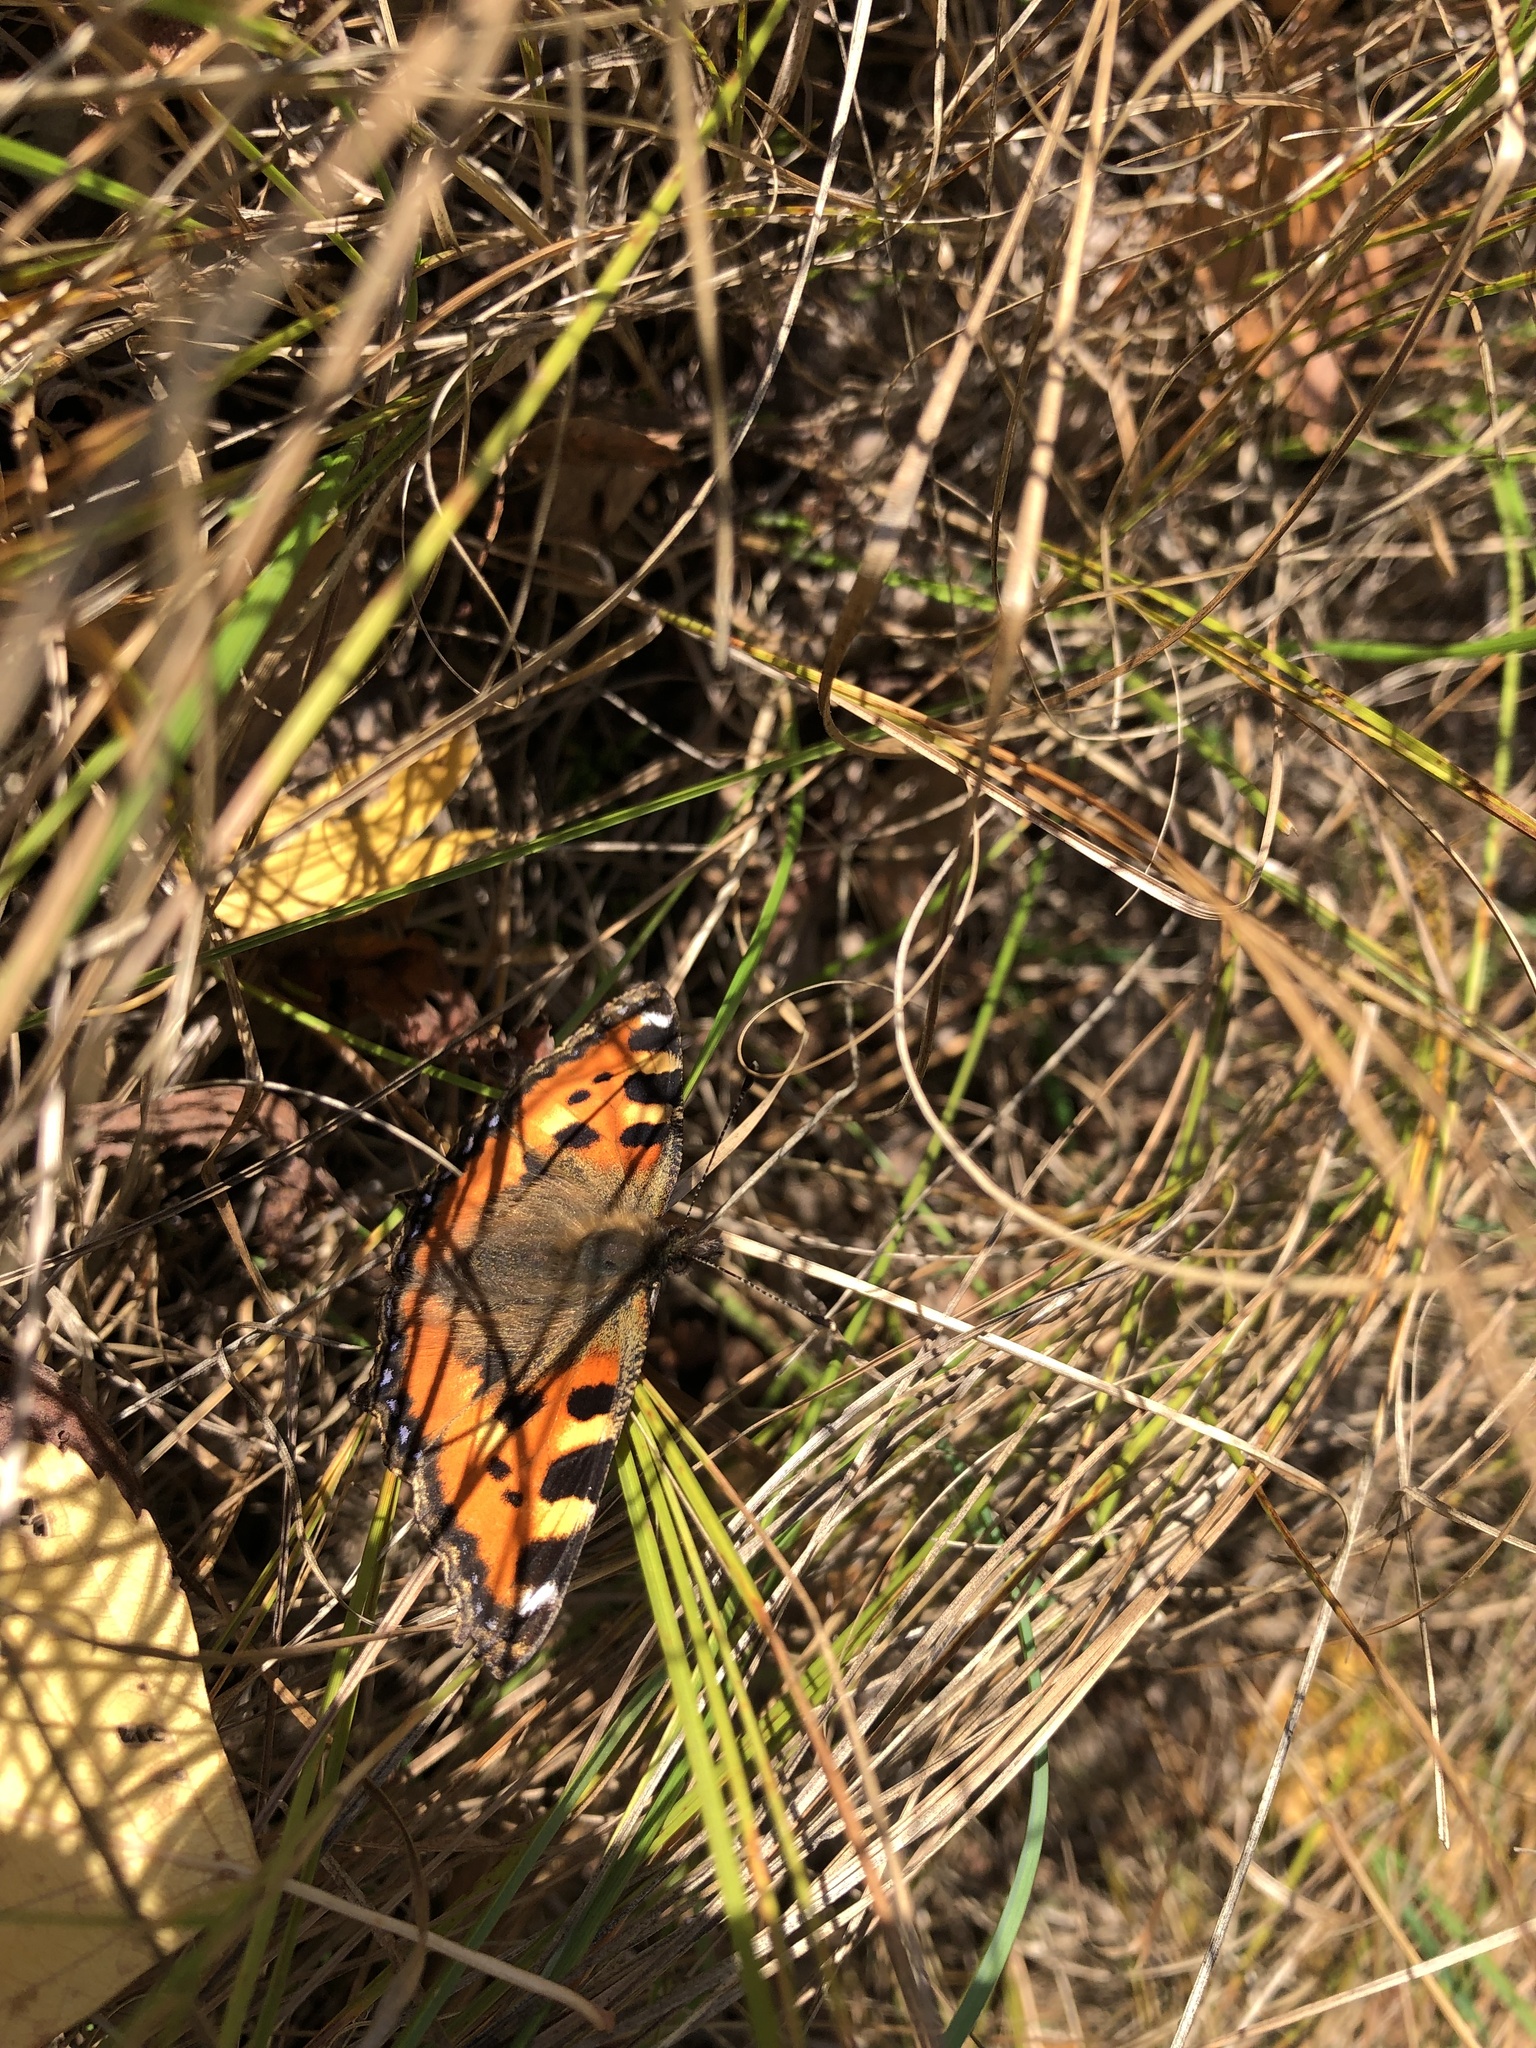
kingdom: Animalia
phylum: Arthropoda
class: Insecta
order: Lepidoptera
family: Nymphalidae
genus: Aglais
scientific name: Aglais urticae
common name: Small tortoiseshell
